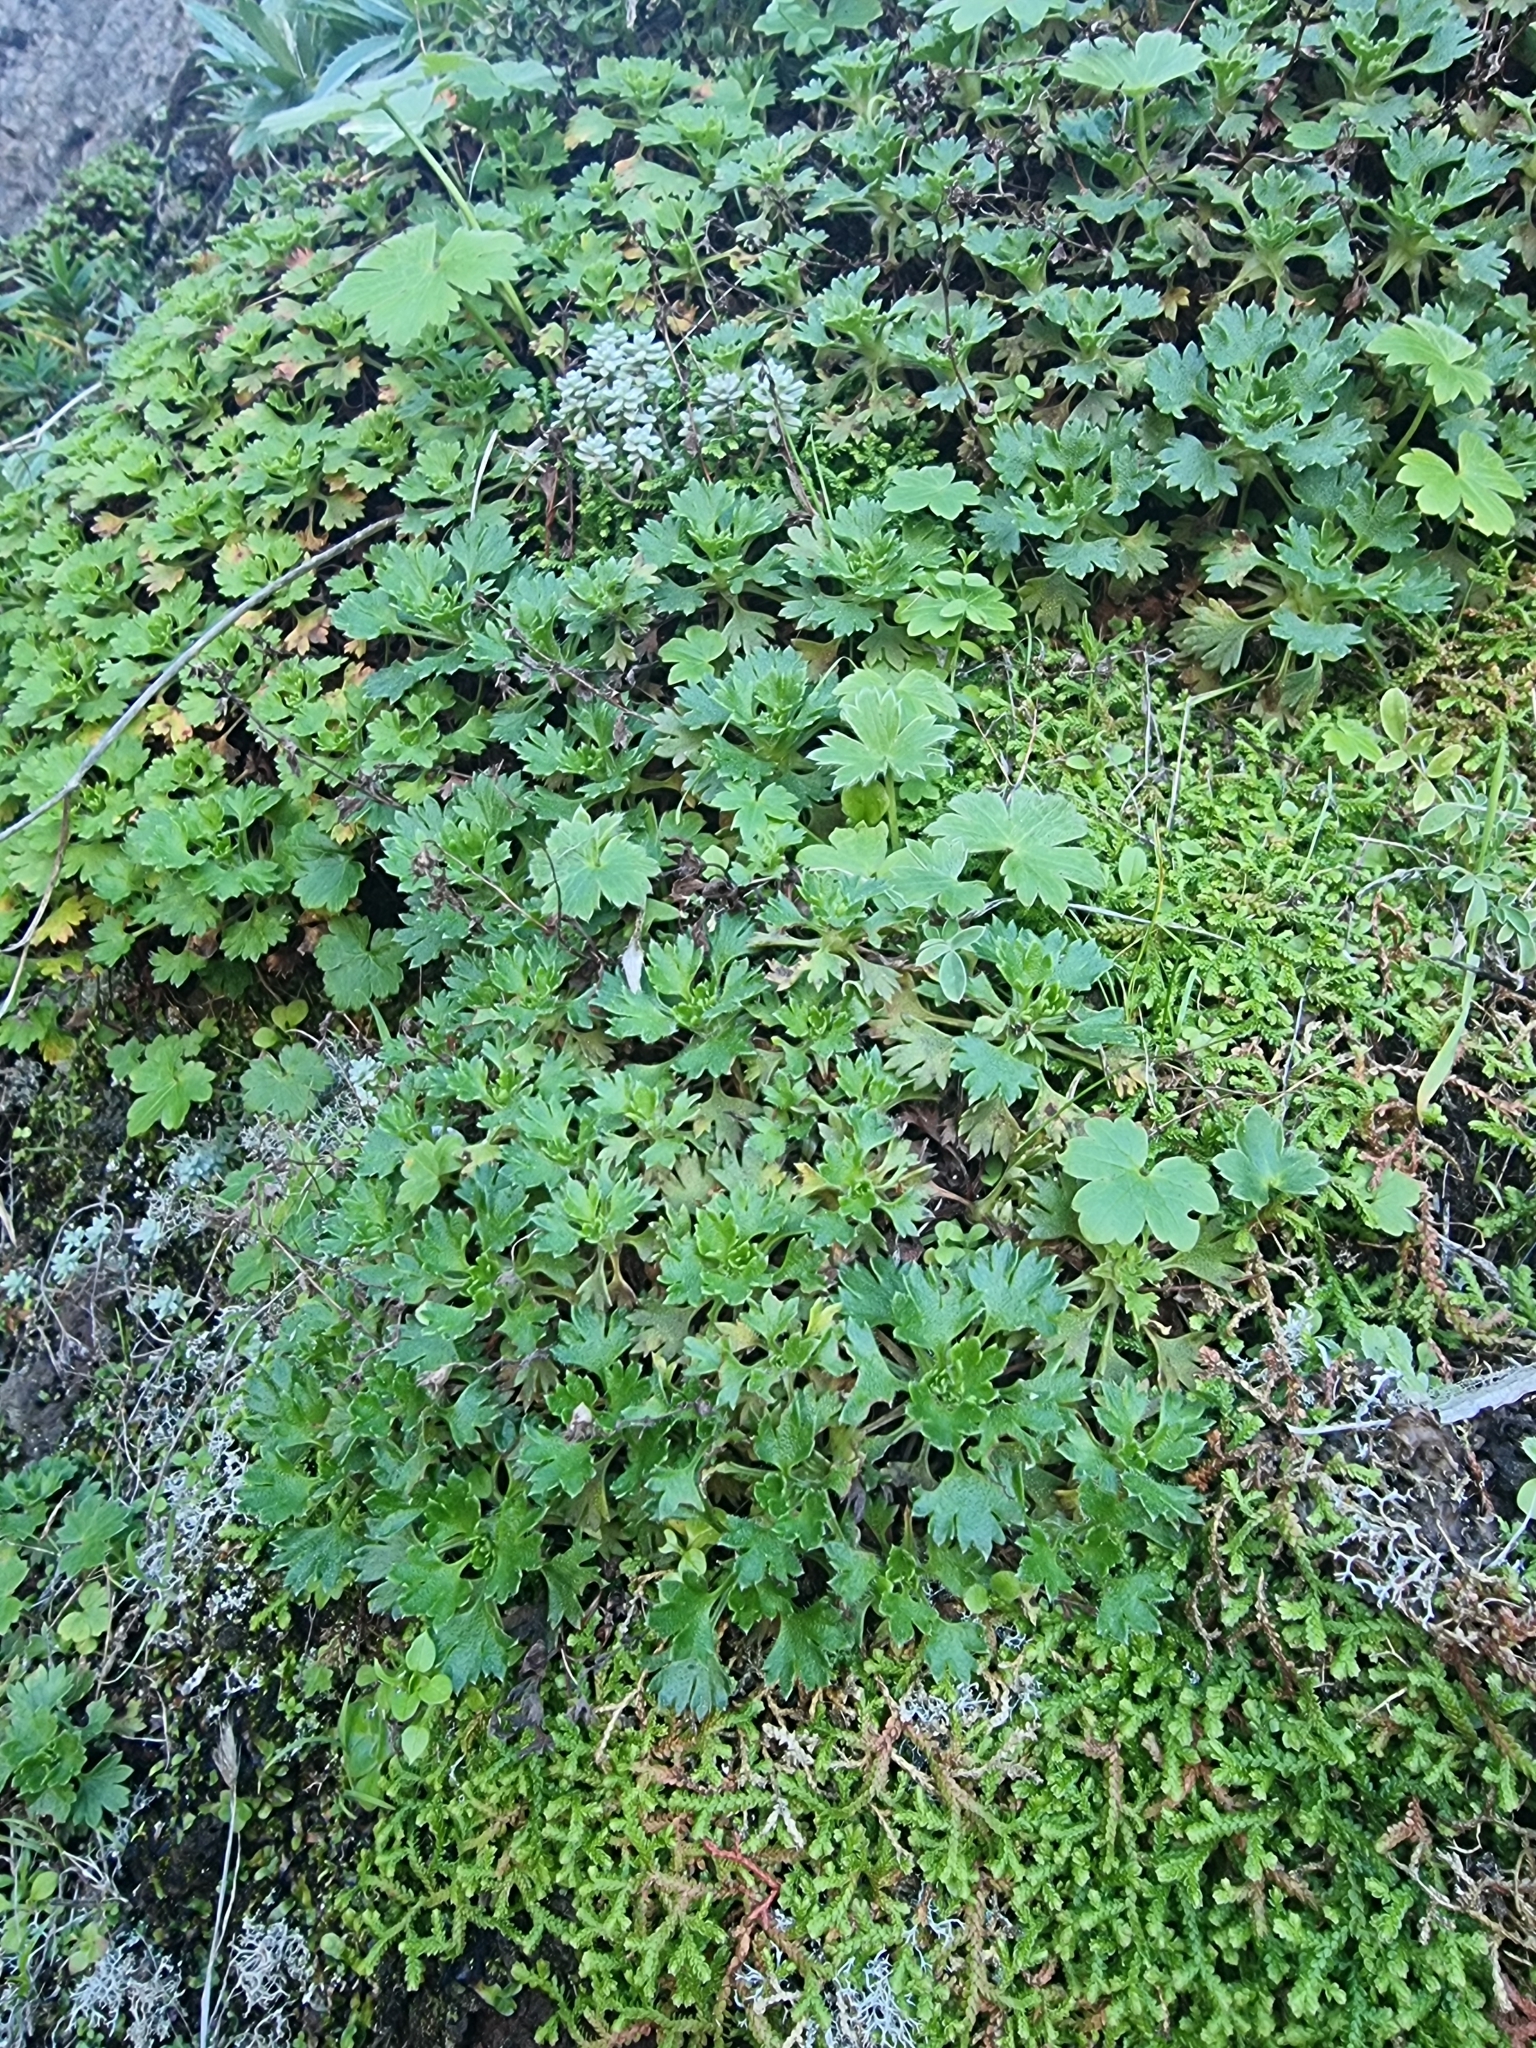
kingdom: Plantae
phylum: Tracheophyta
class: Magnoliopsida
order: Saxifragales
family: Saxifragaceae
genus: Saxifraga
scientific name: Saxifraga maderensis
